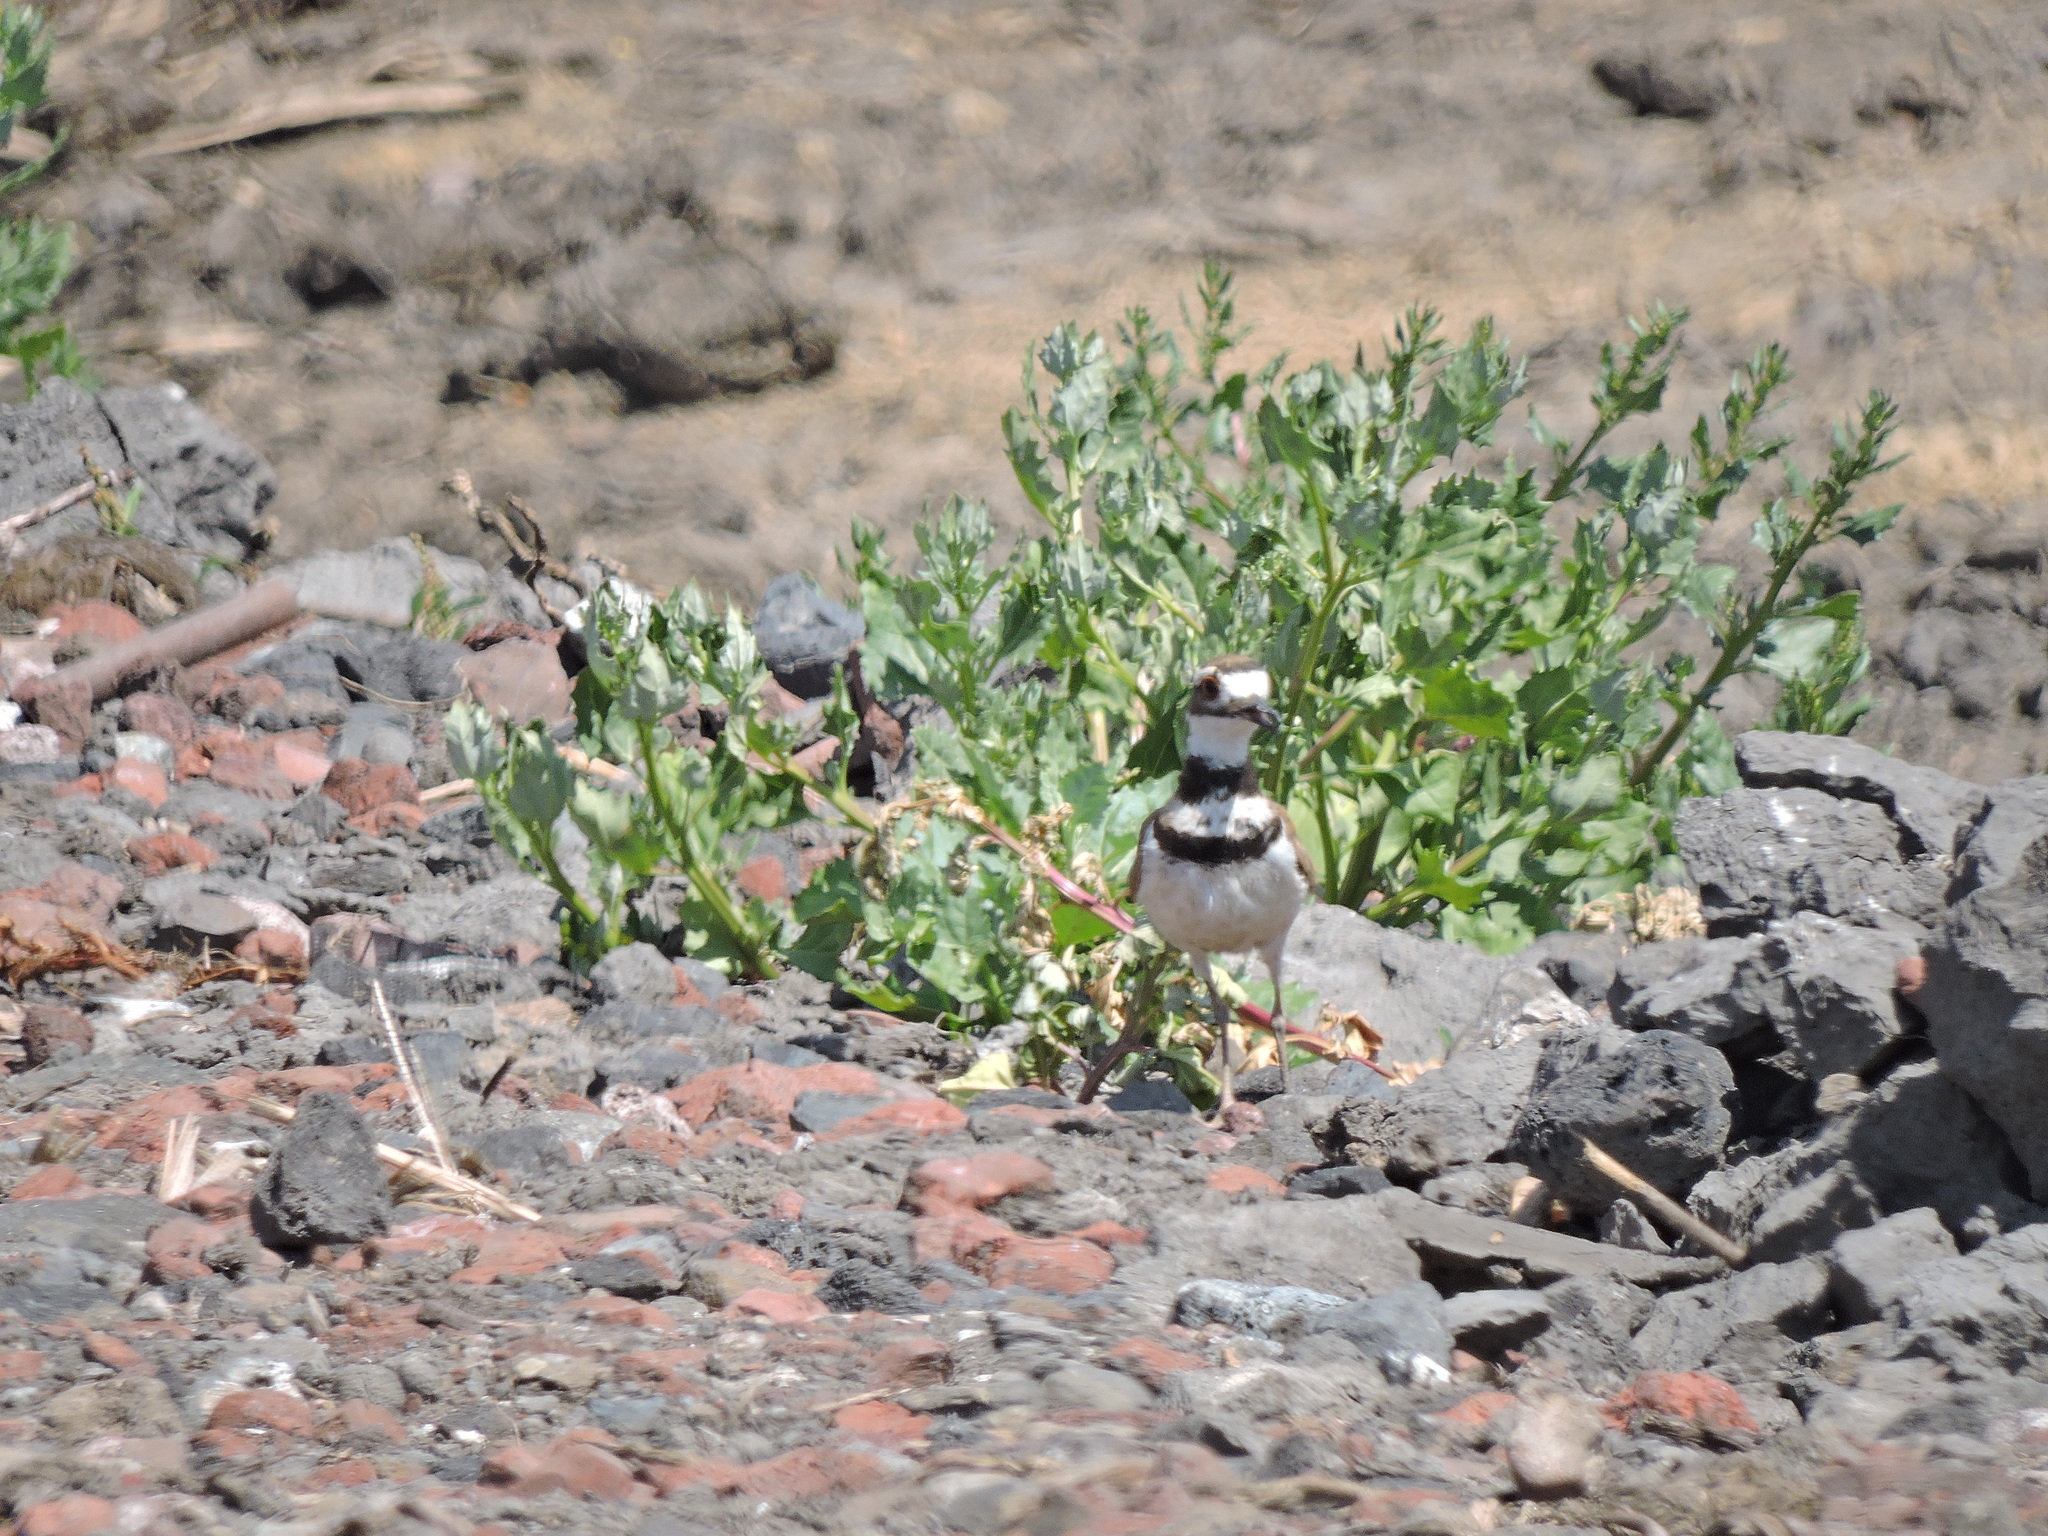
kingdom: Animalia
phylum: Chordata
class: Aves
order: Charadriiformes
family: Charadriidae
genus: Charadrius
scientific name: Charadrius vociferus
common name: Killdeer
